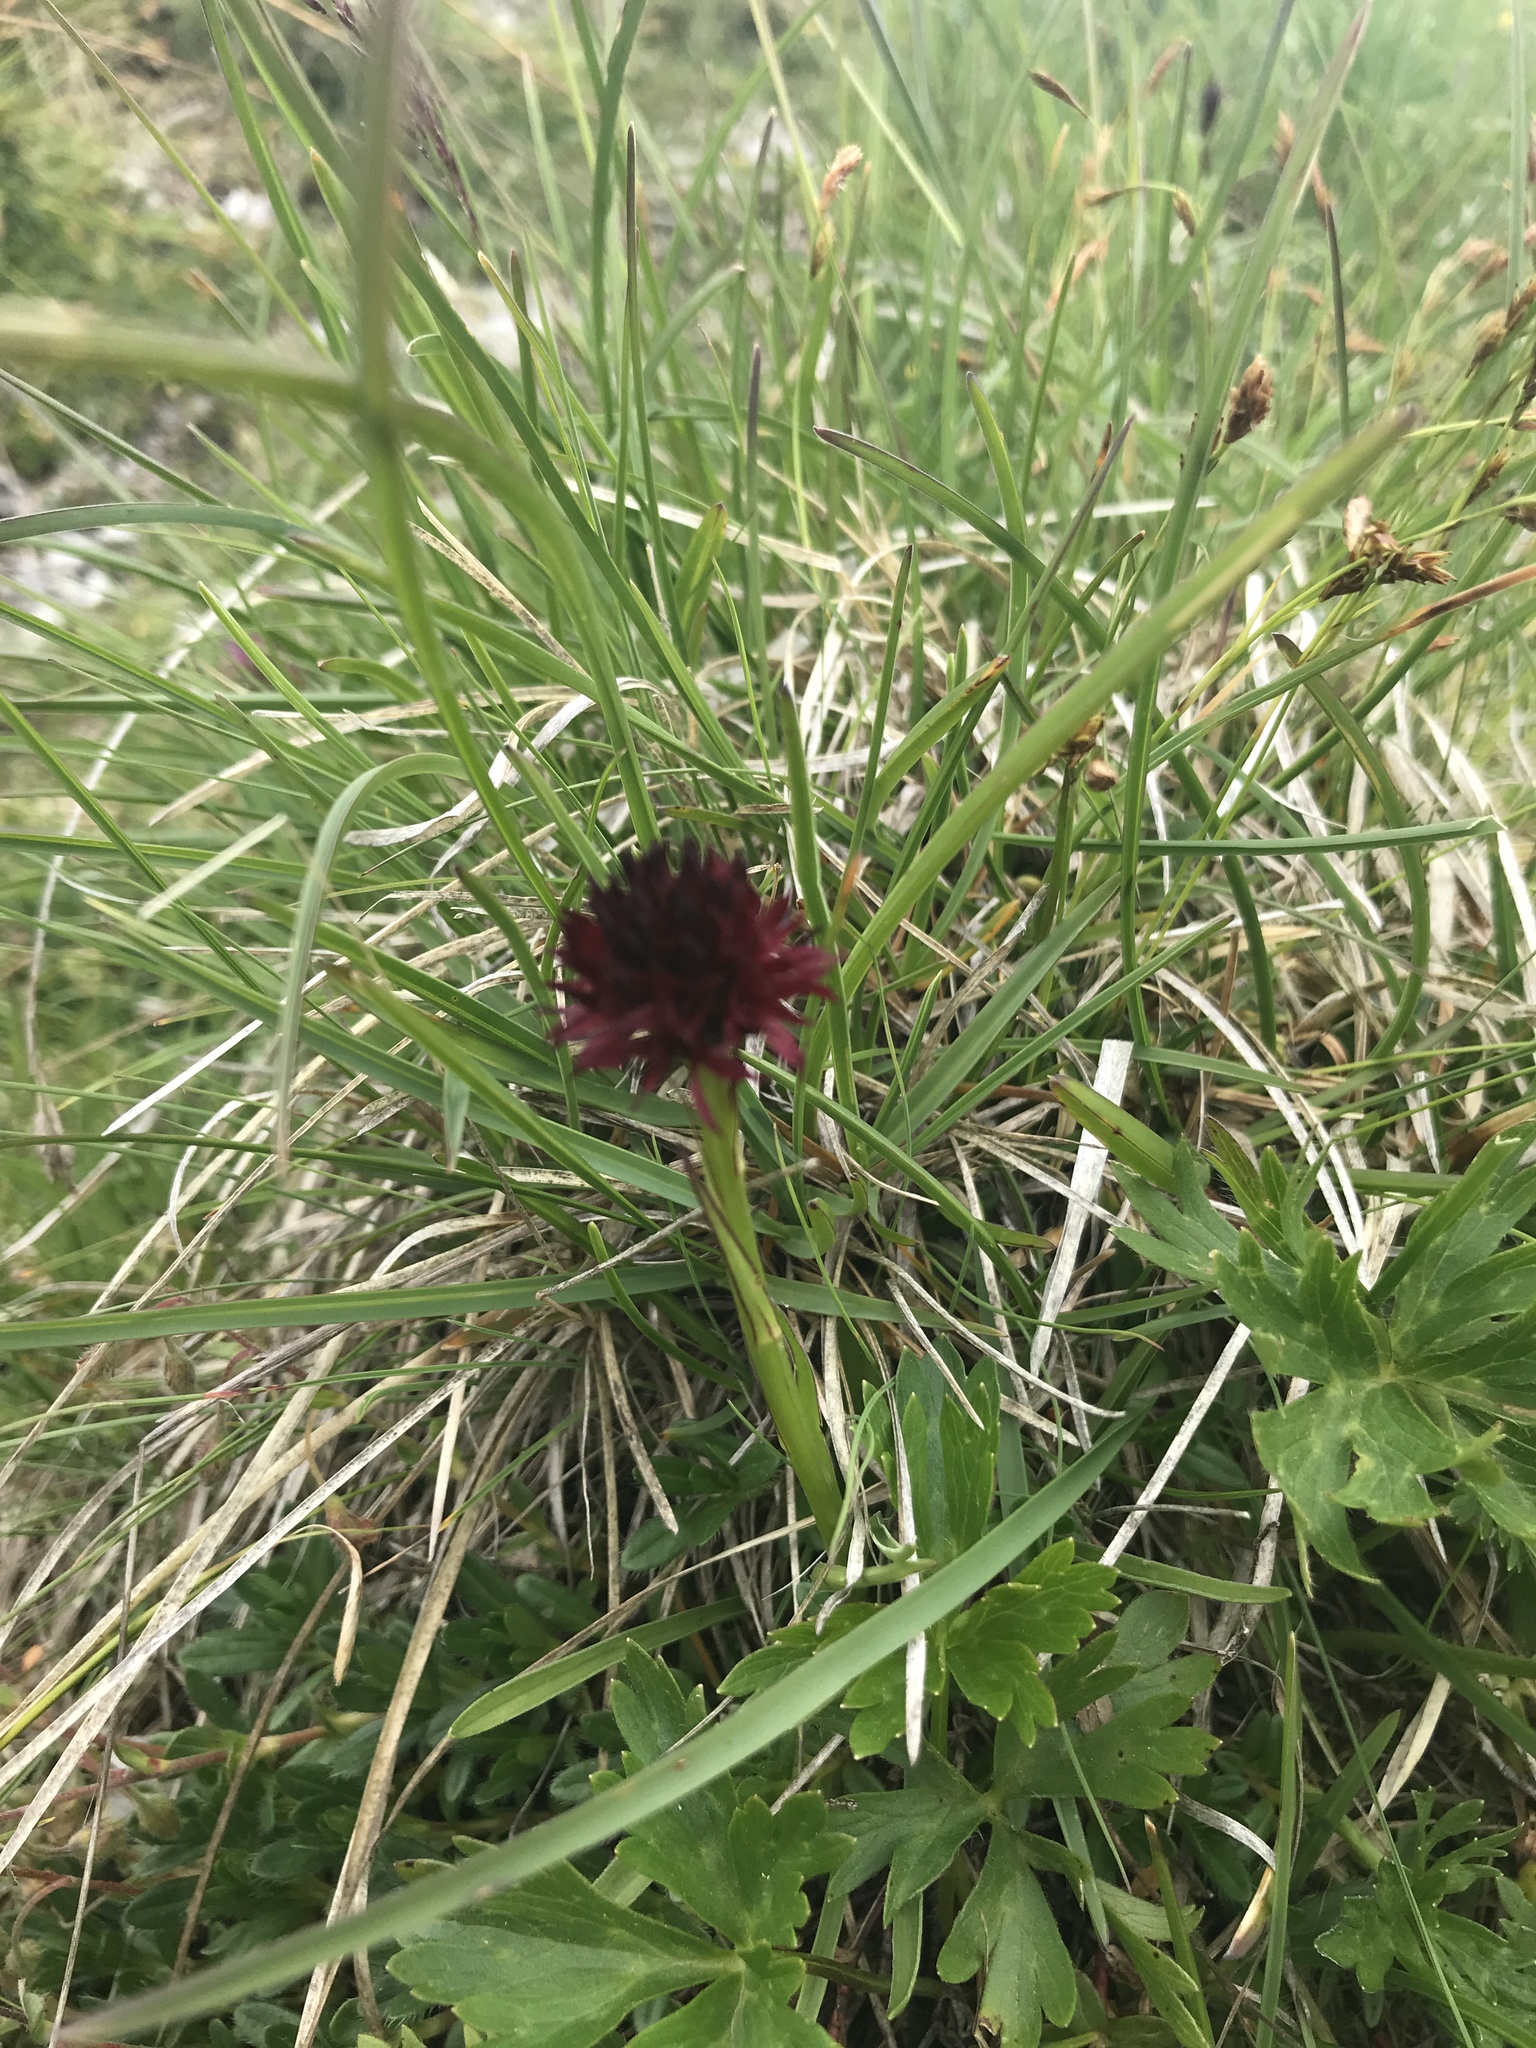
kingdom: Plantae
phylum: Tracheophyta
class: Liliopsida
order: Asparagales
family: Orchidaceae
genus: Gymnadenia
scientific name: Gymnadenia austriaca
